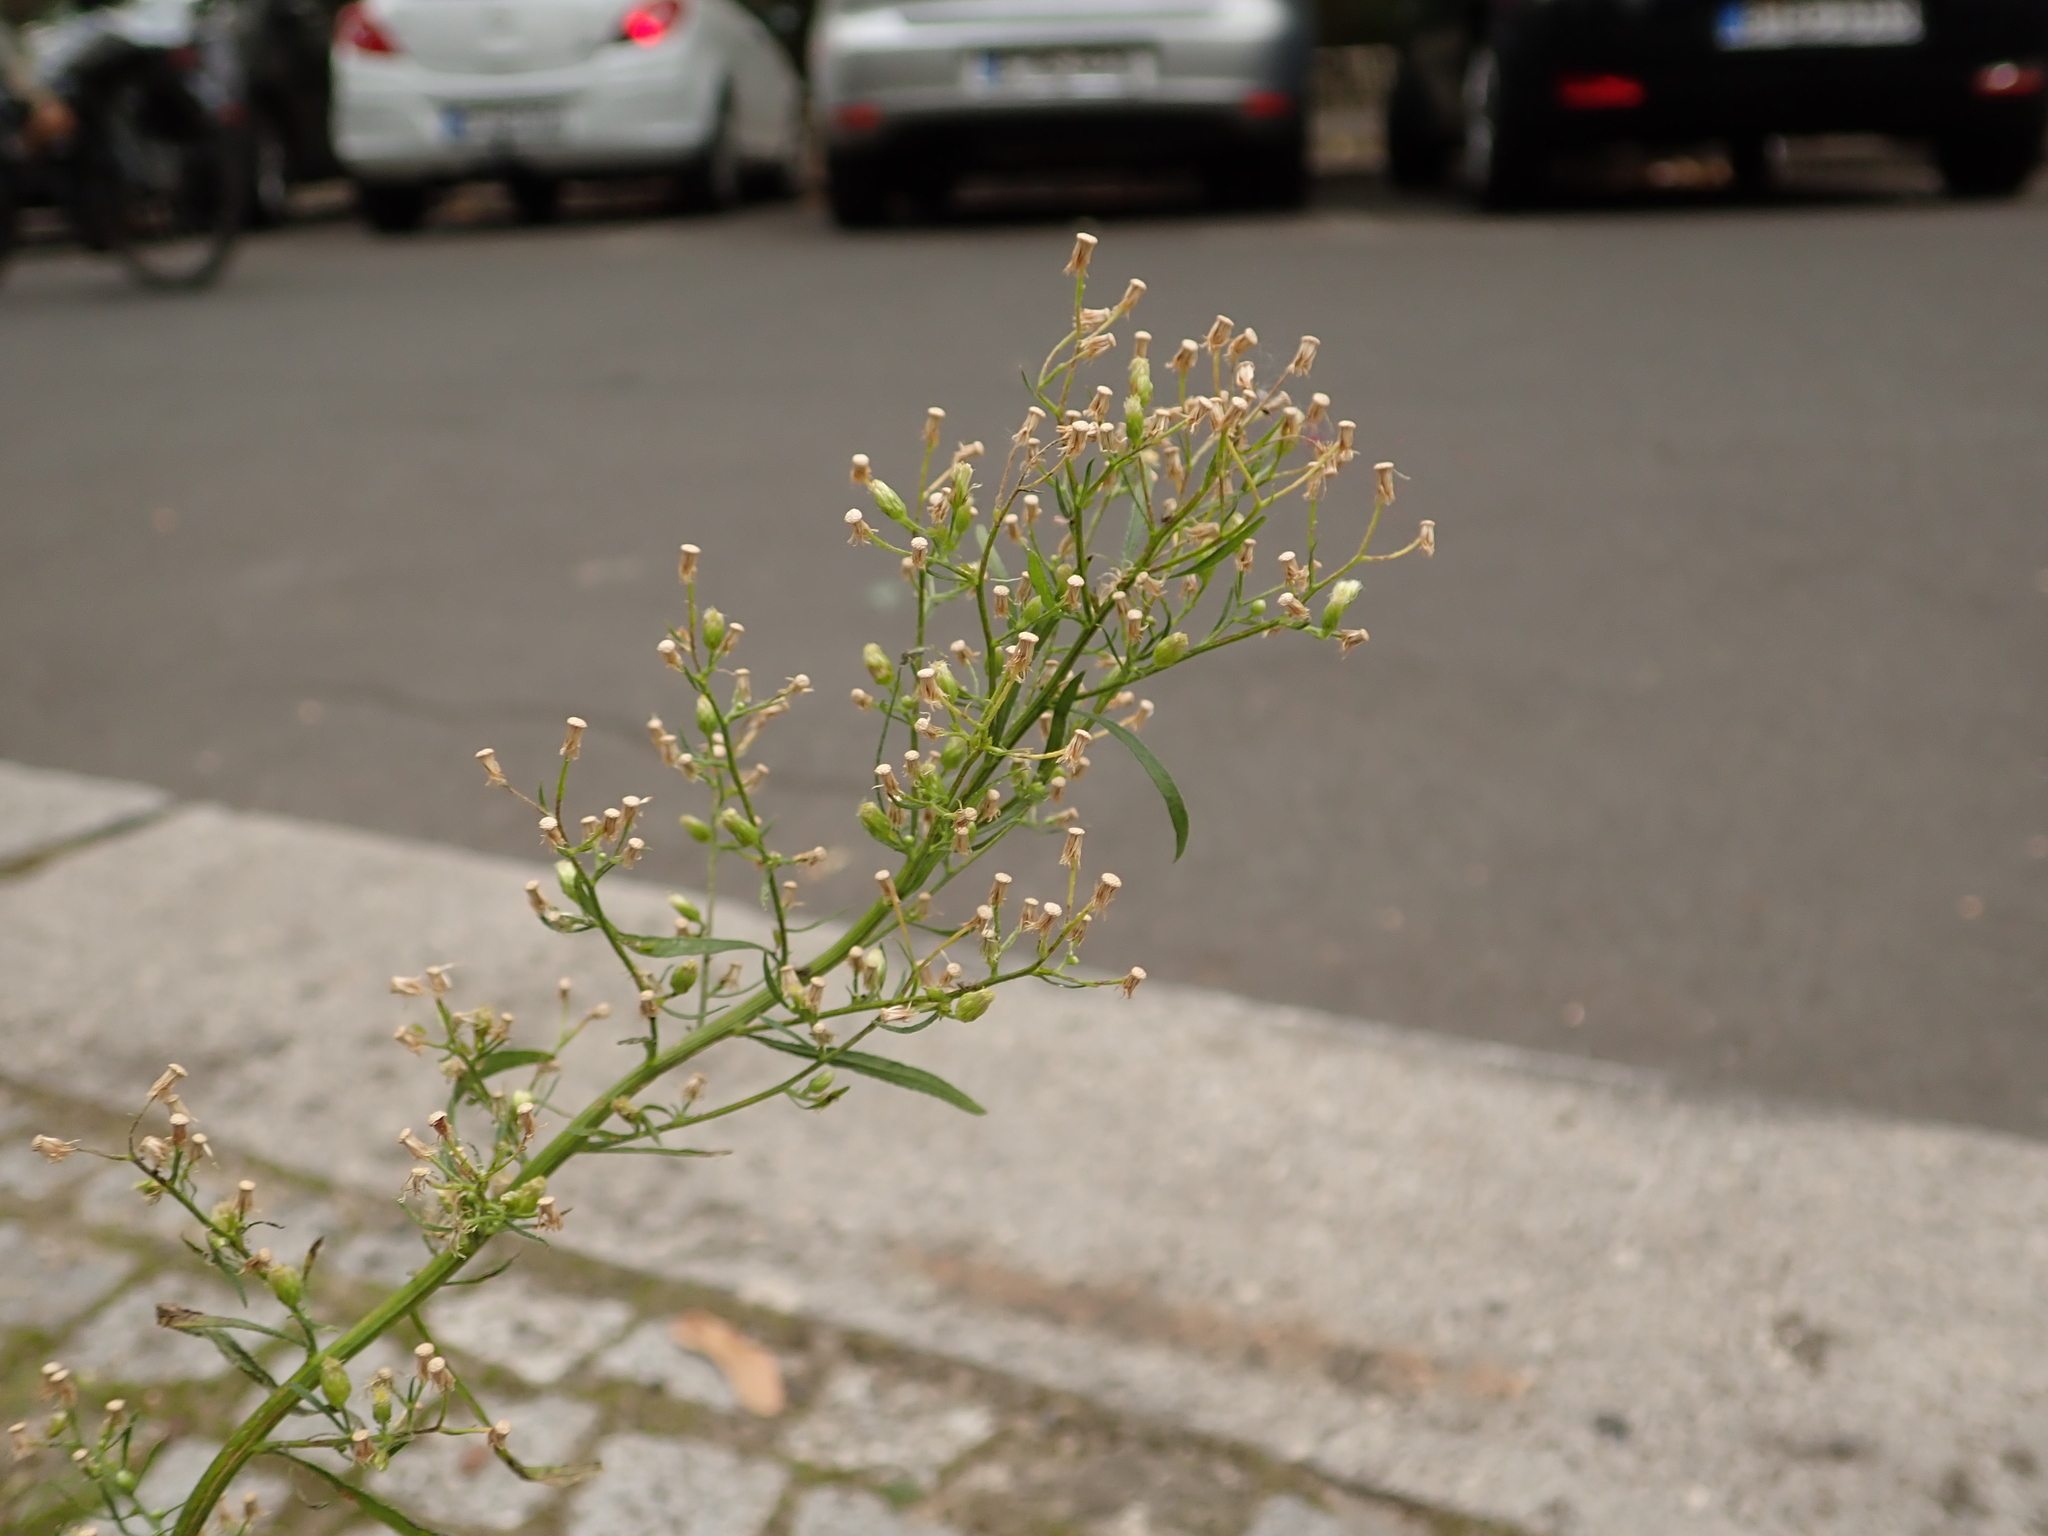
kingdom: Plantae
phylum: Tracheophyta
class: Magnoliopsida
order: Asterales
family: Asteraceae
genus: Erigeron
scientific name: Erigeron canadensis
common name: Canadian fleabane
